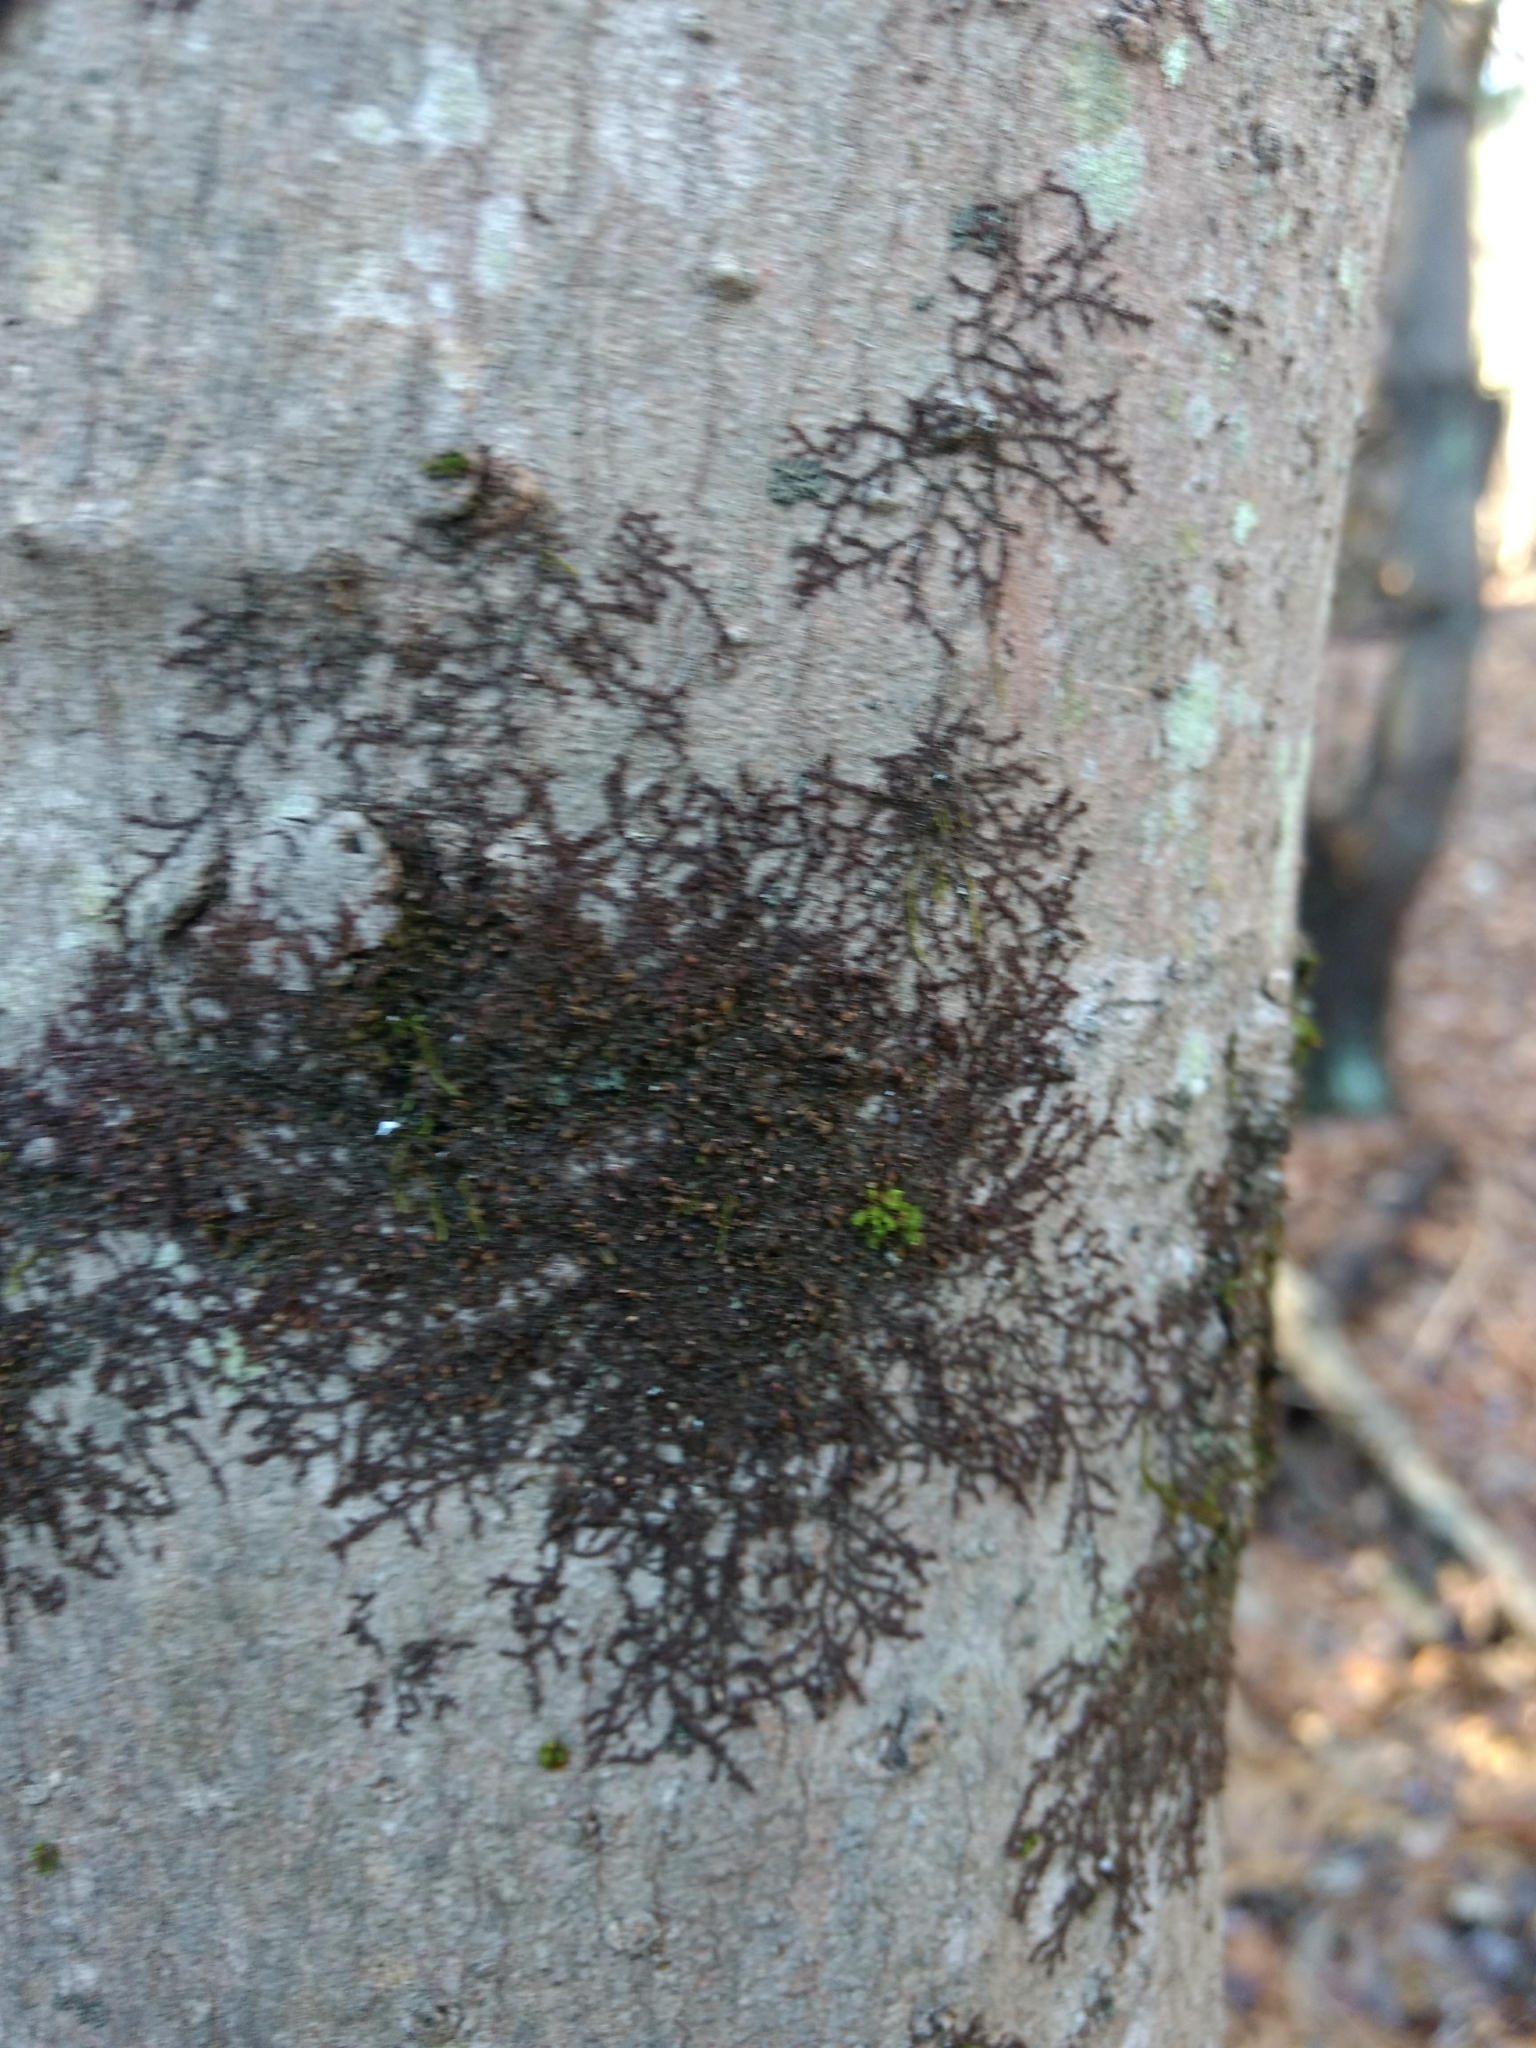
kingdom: Plantae
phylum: Marchantiophyta
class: Jungermanniopsida
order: Porellales
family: Frullaniaceae
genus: Frullania
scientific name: Frullania eboracensis
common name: New york scalewort
